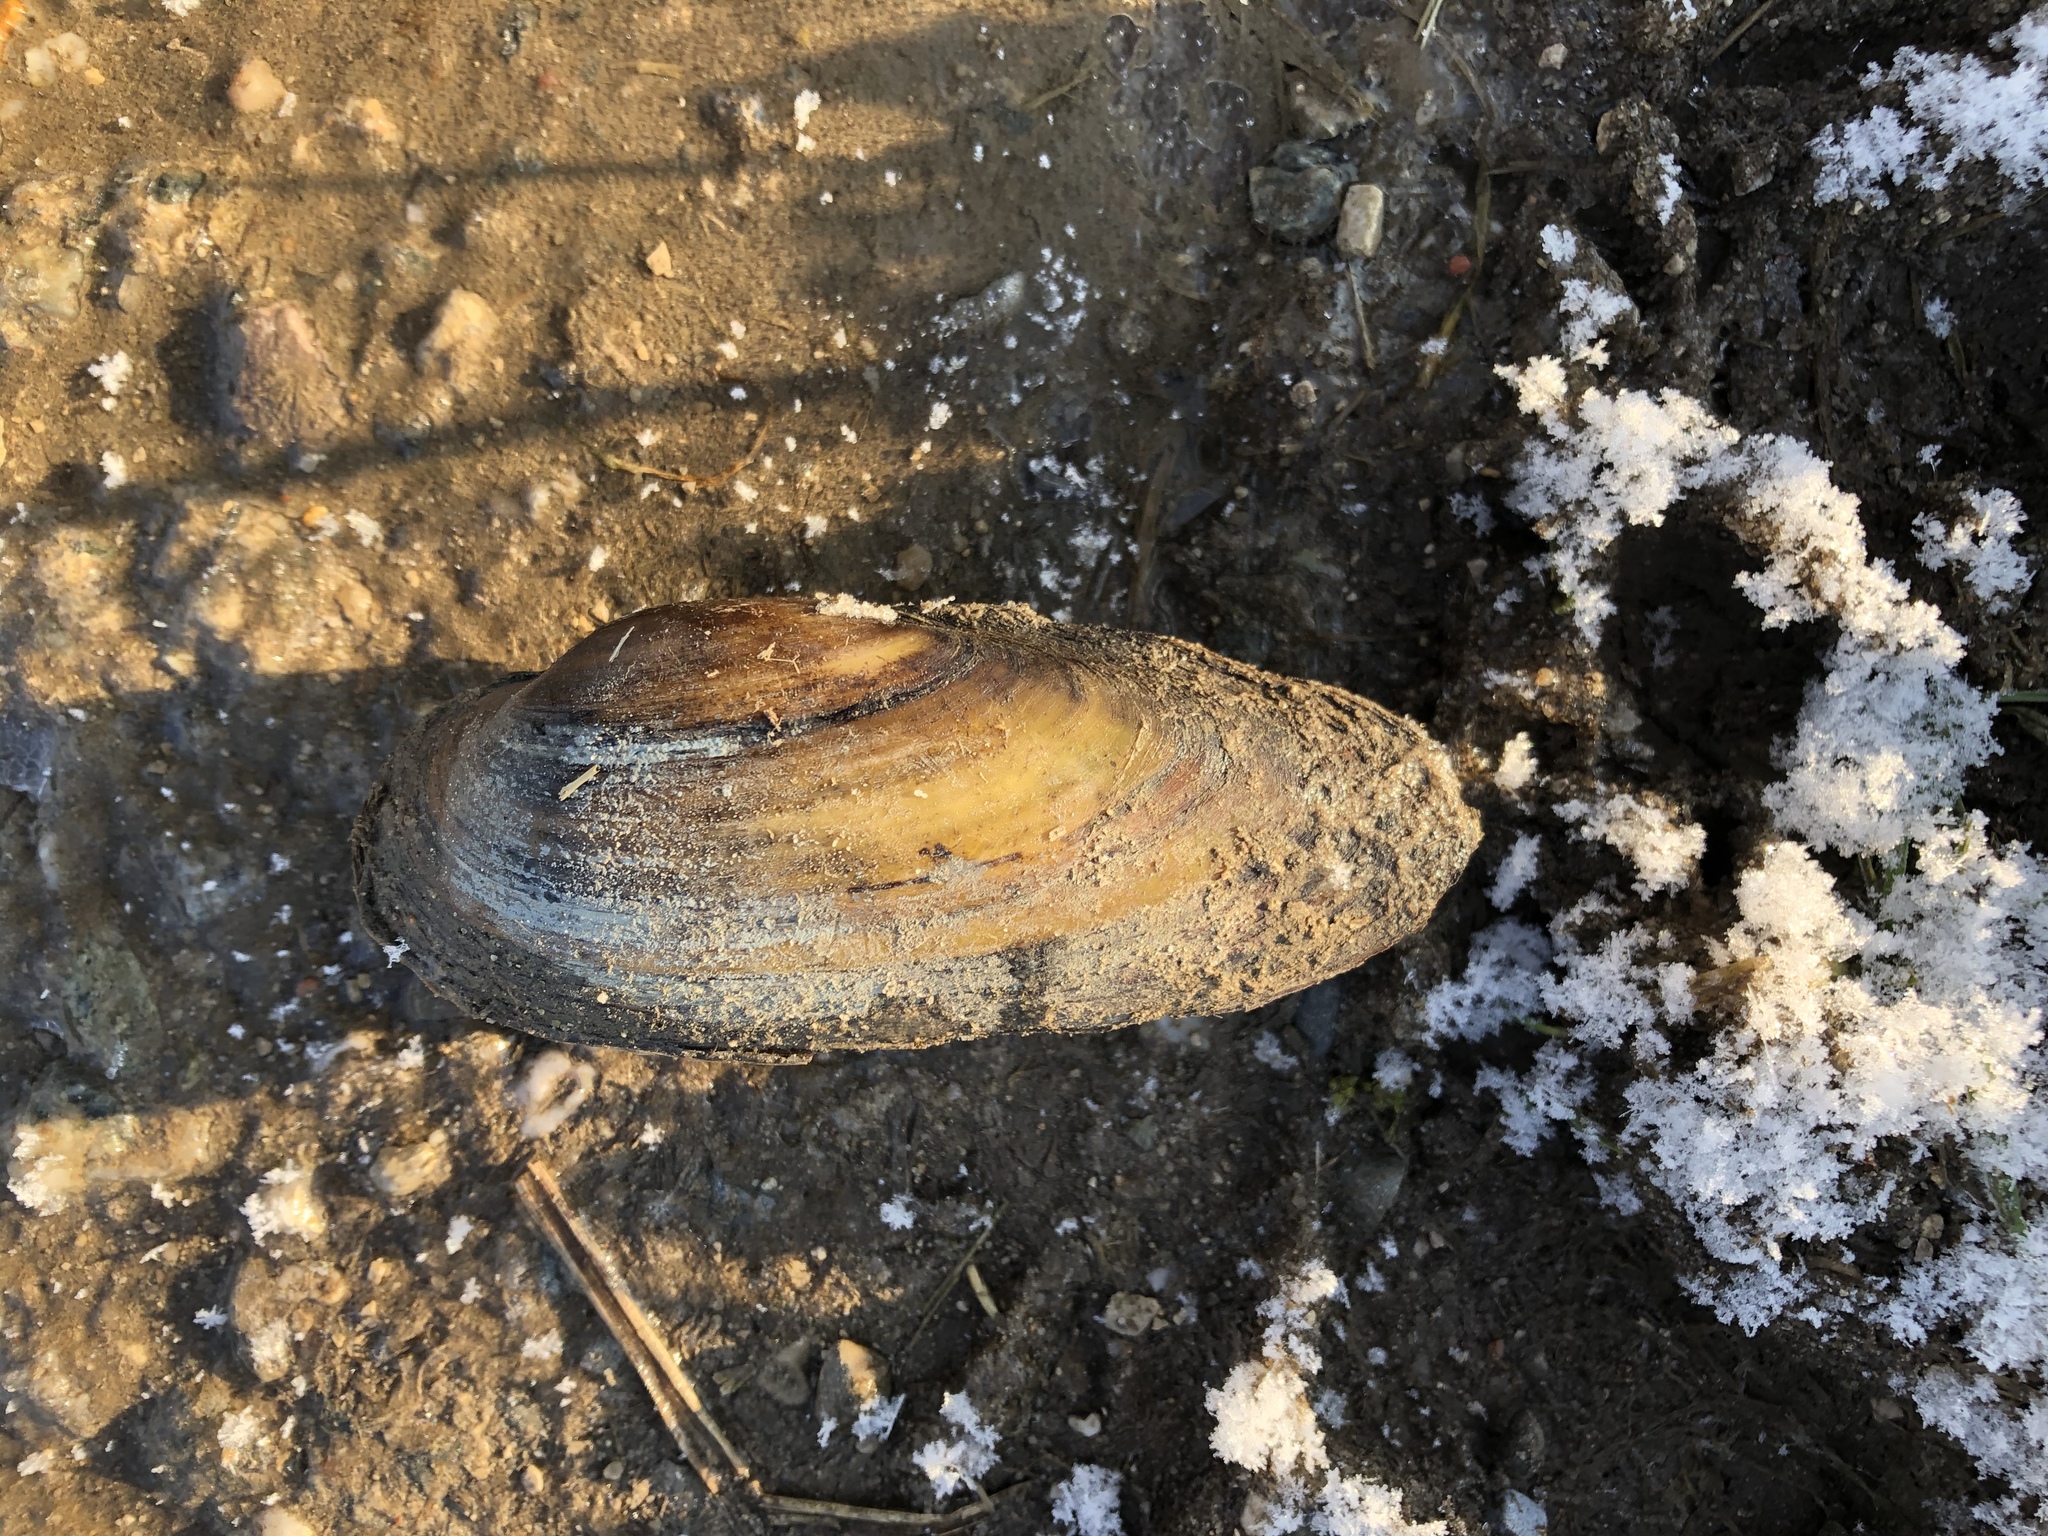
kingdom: Animalia
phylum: Mollusca
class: Bivalvia
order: Unionida
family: Unionidae
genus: Unio
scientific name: Unio pictorum
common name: Painter's mussel
